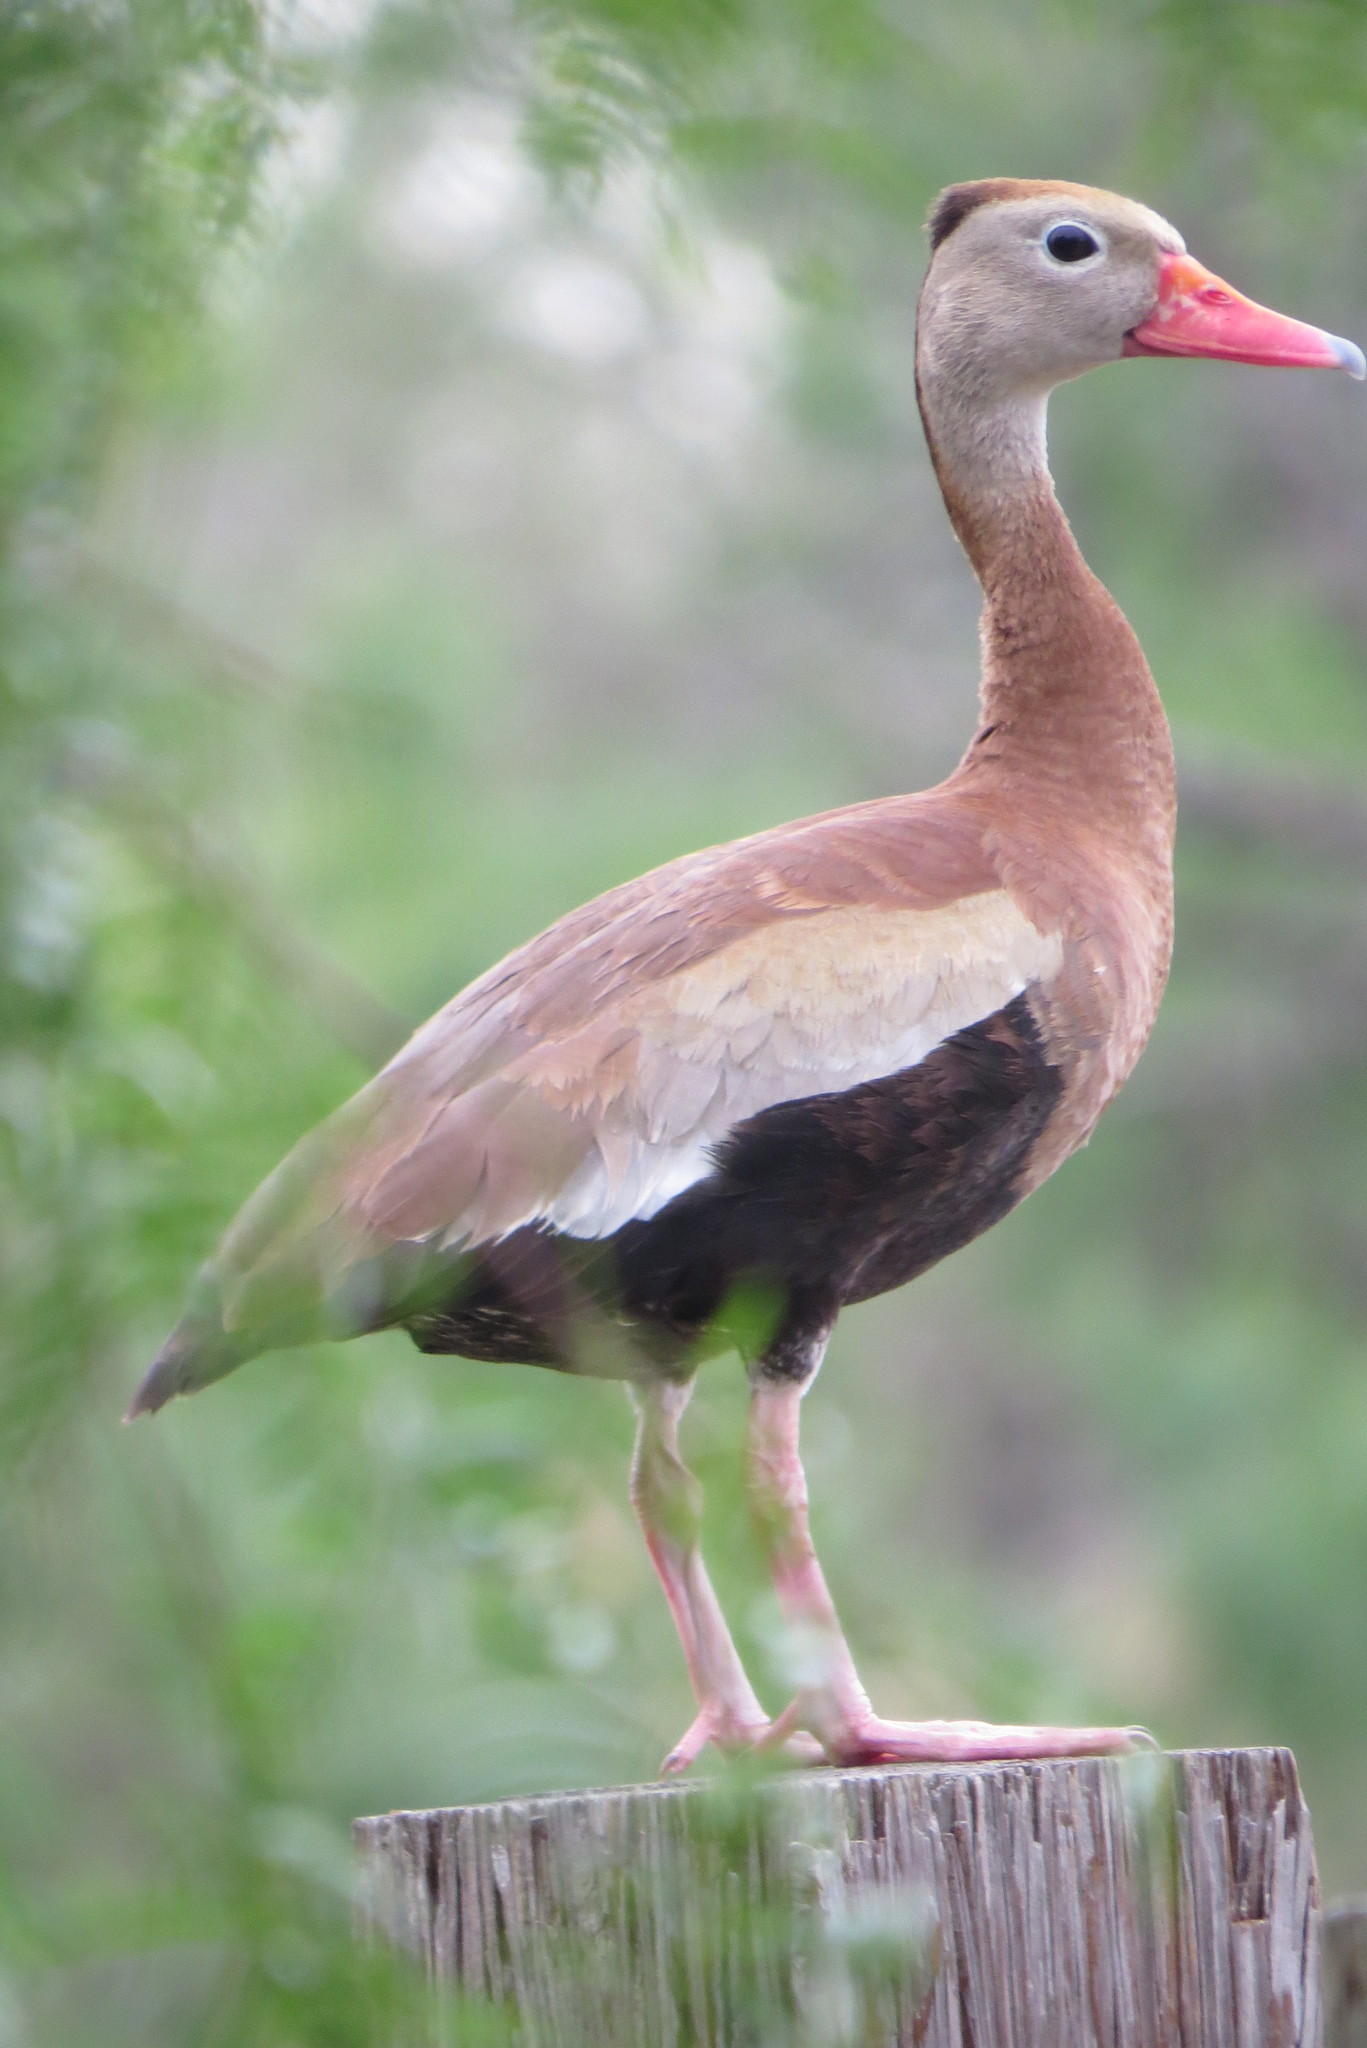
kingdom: Animalia
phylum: Chordata
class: Aves
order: Anseriformes
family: Anatidae
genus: Dendrocygna
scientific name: Dendrocygna autumnalis
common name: Black-bellied whistling duck
